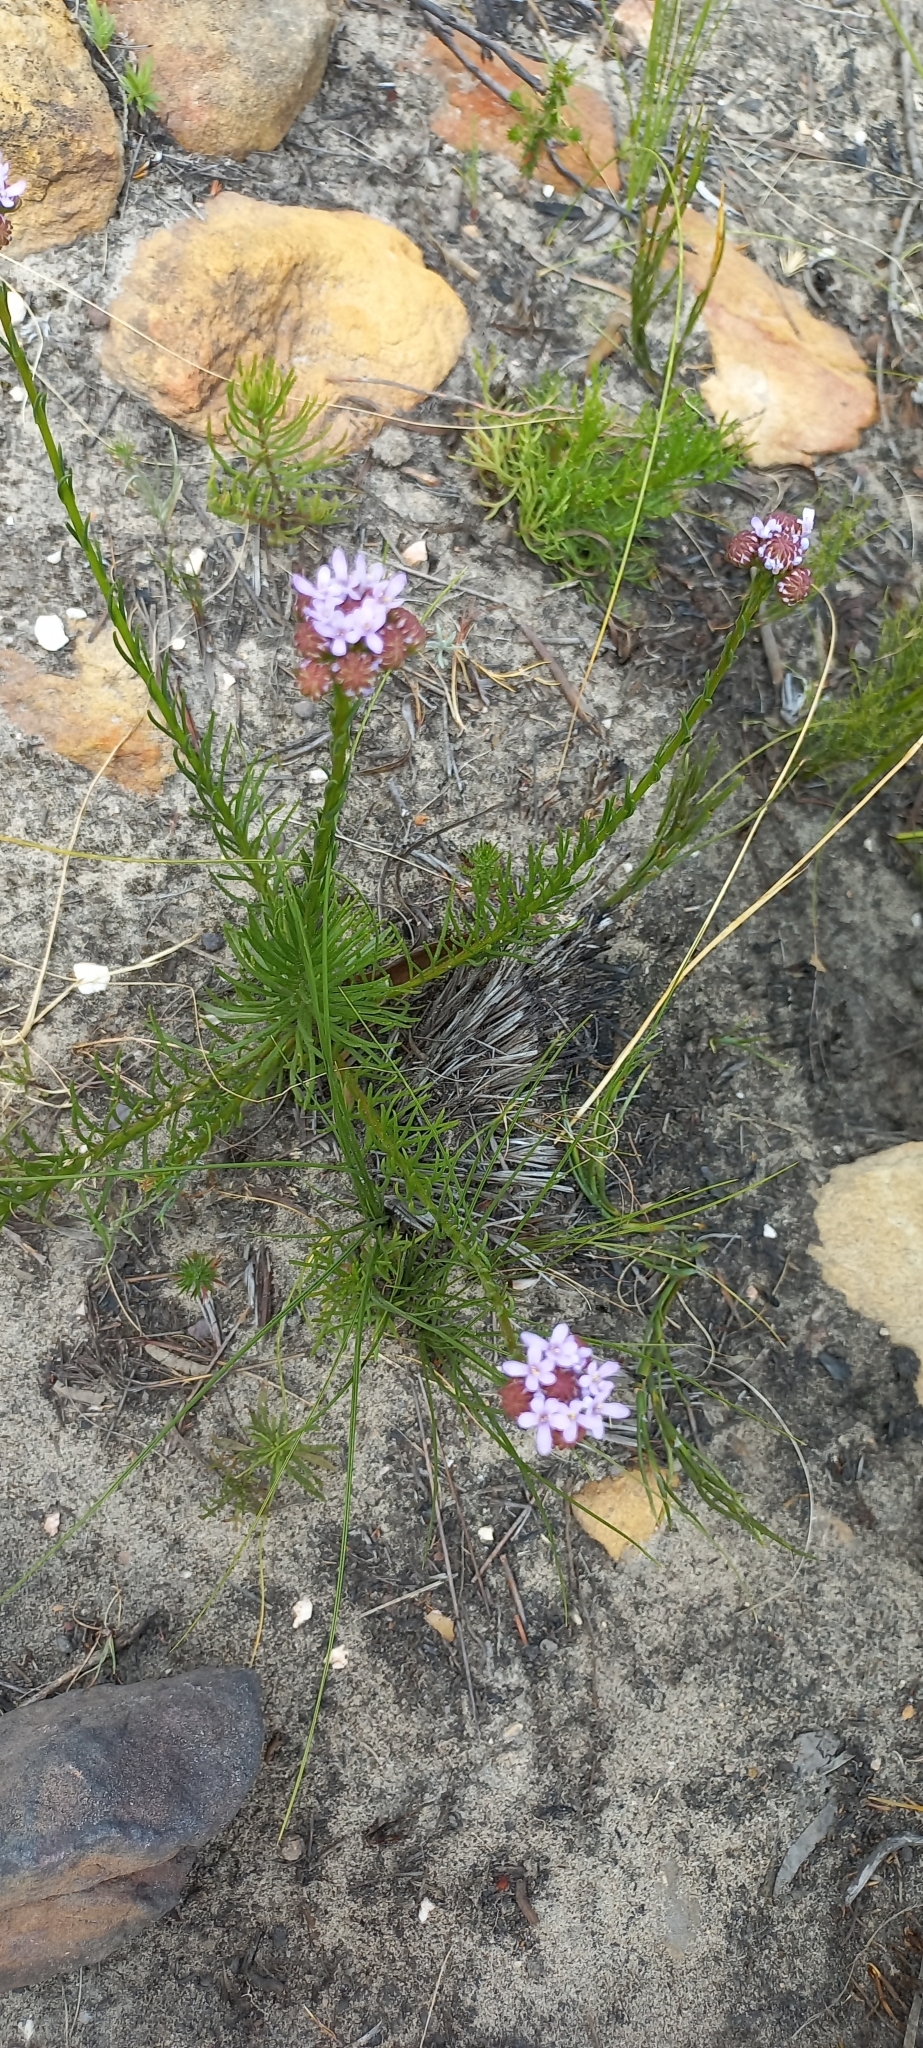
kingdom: Plantae
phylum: Tracheophyta
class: Magnoliopsida
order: Lamiales
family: Scrophulariaceae
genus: Pseudoselago
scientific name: Pseudoselago spuria
